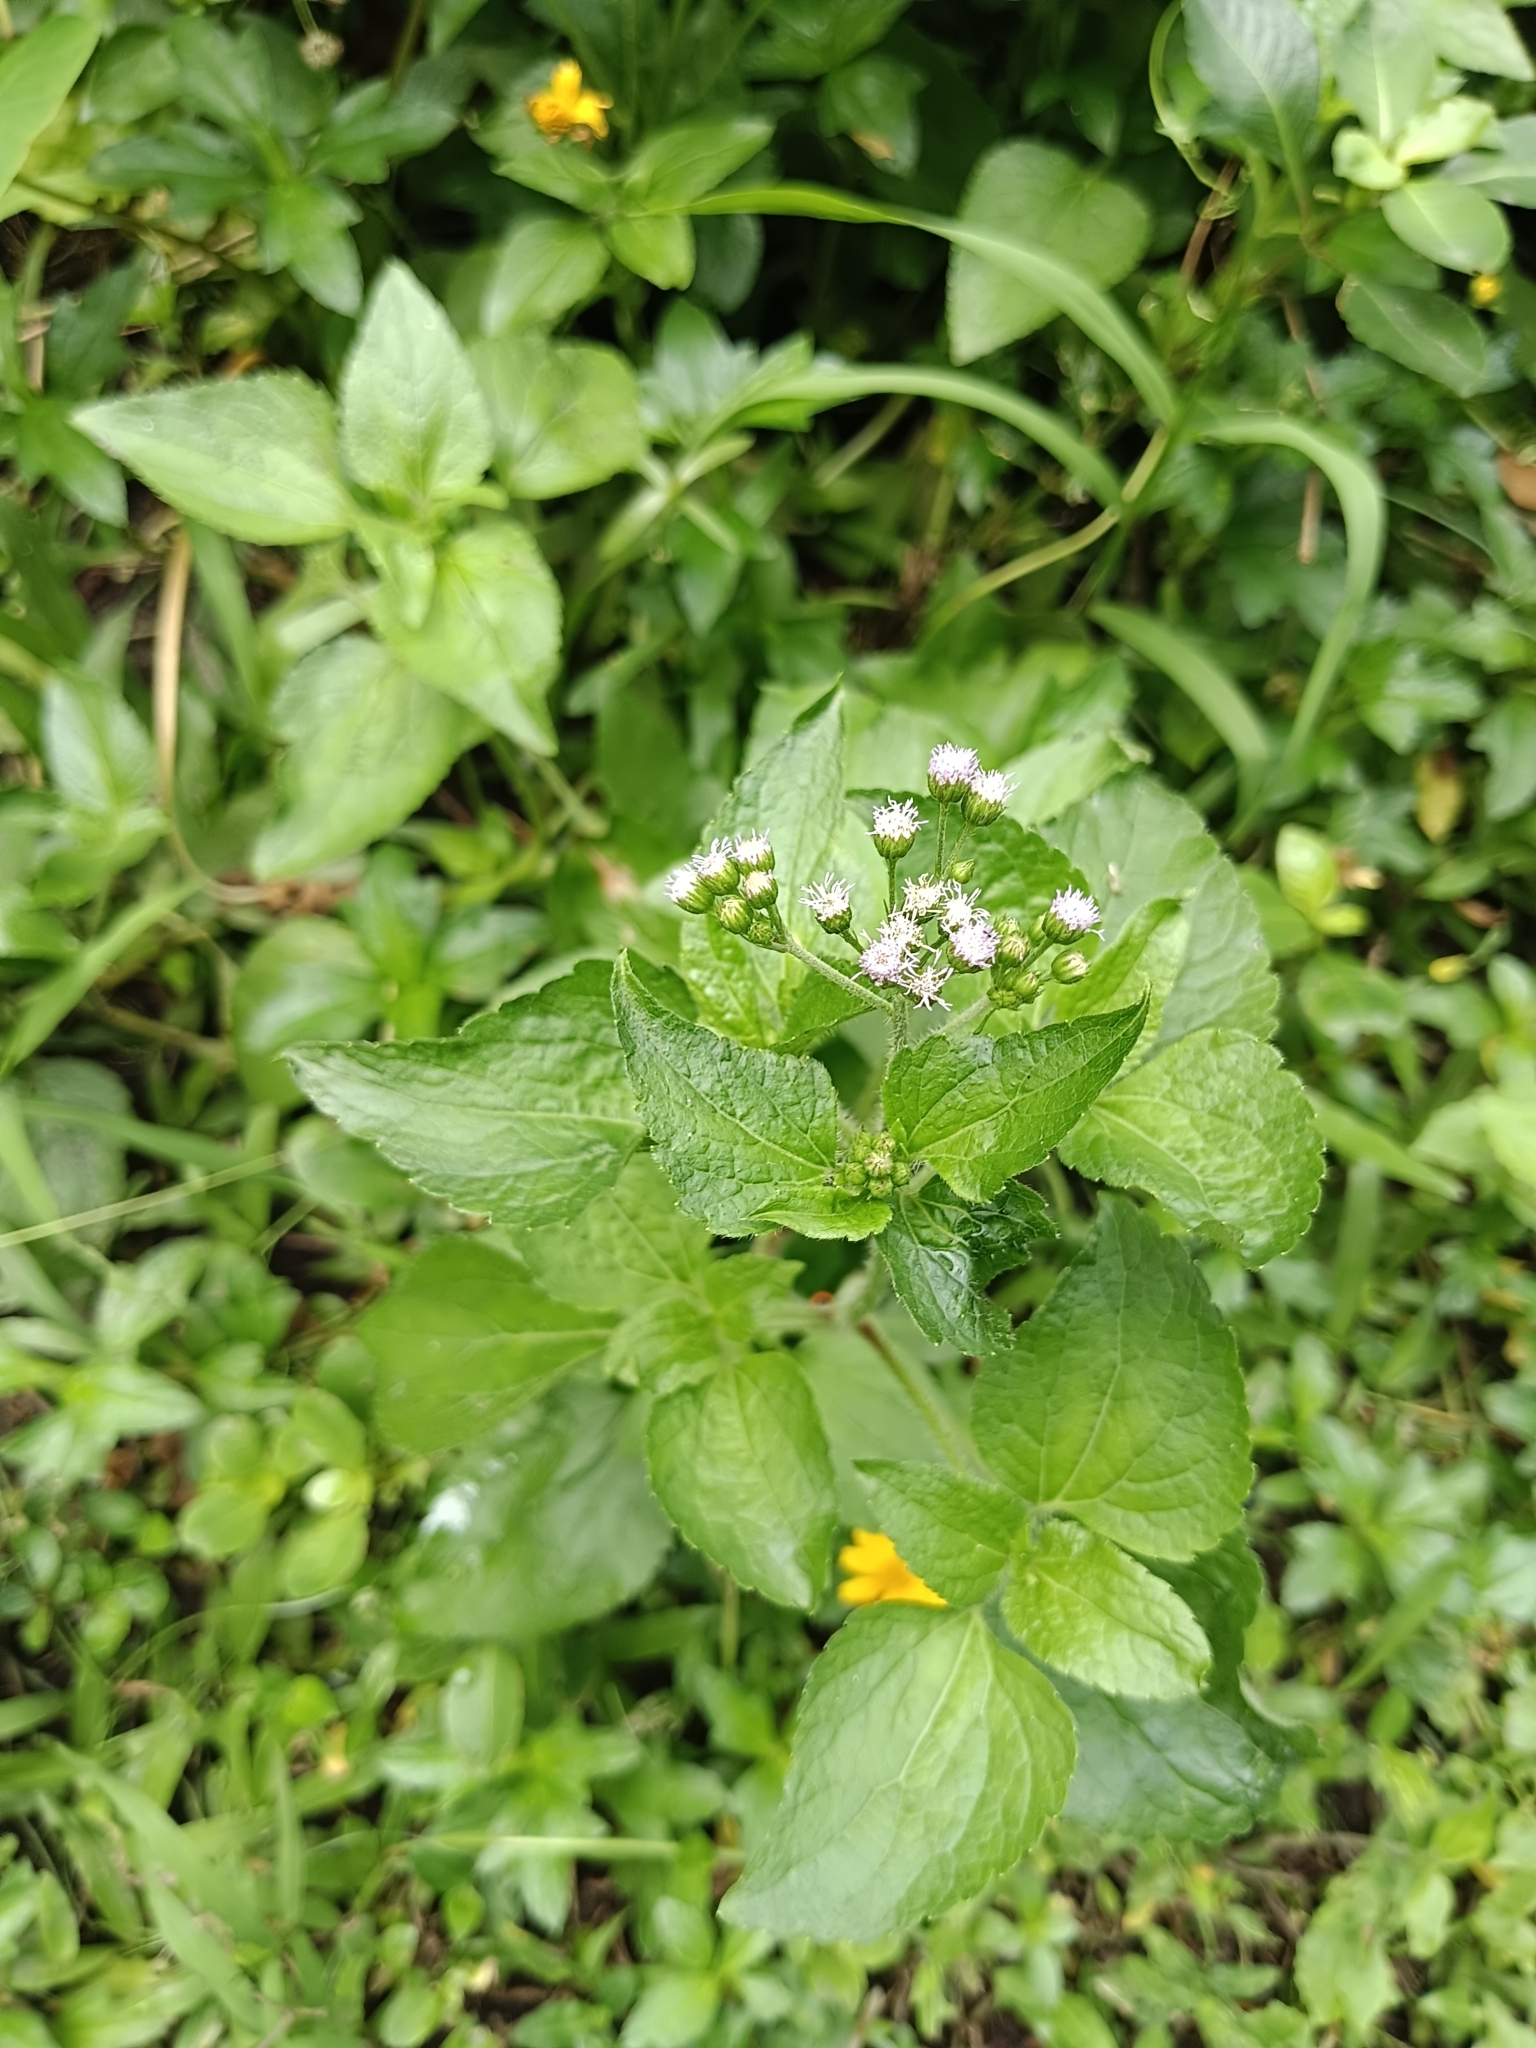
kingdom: Plantae
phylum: Tracheophyta
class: Magnoliopsida
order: Asterales
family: Asteraceae
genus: Ageratum
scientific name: Ageratum conyzoides
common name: Tropical whiteweed
